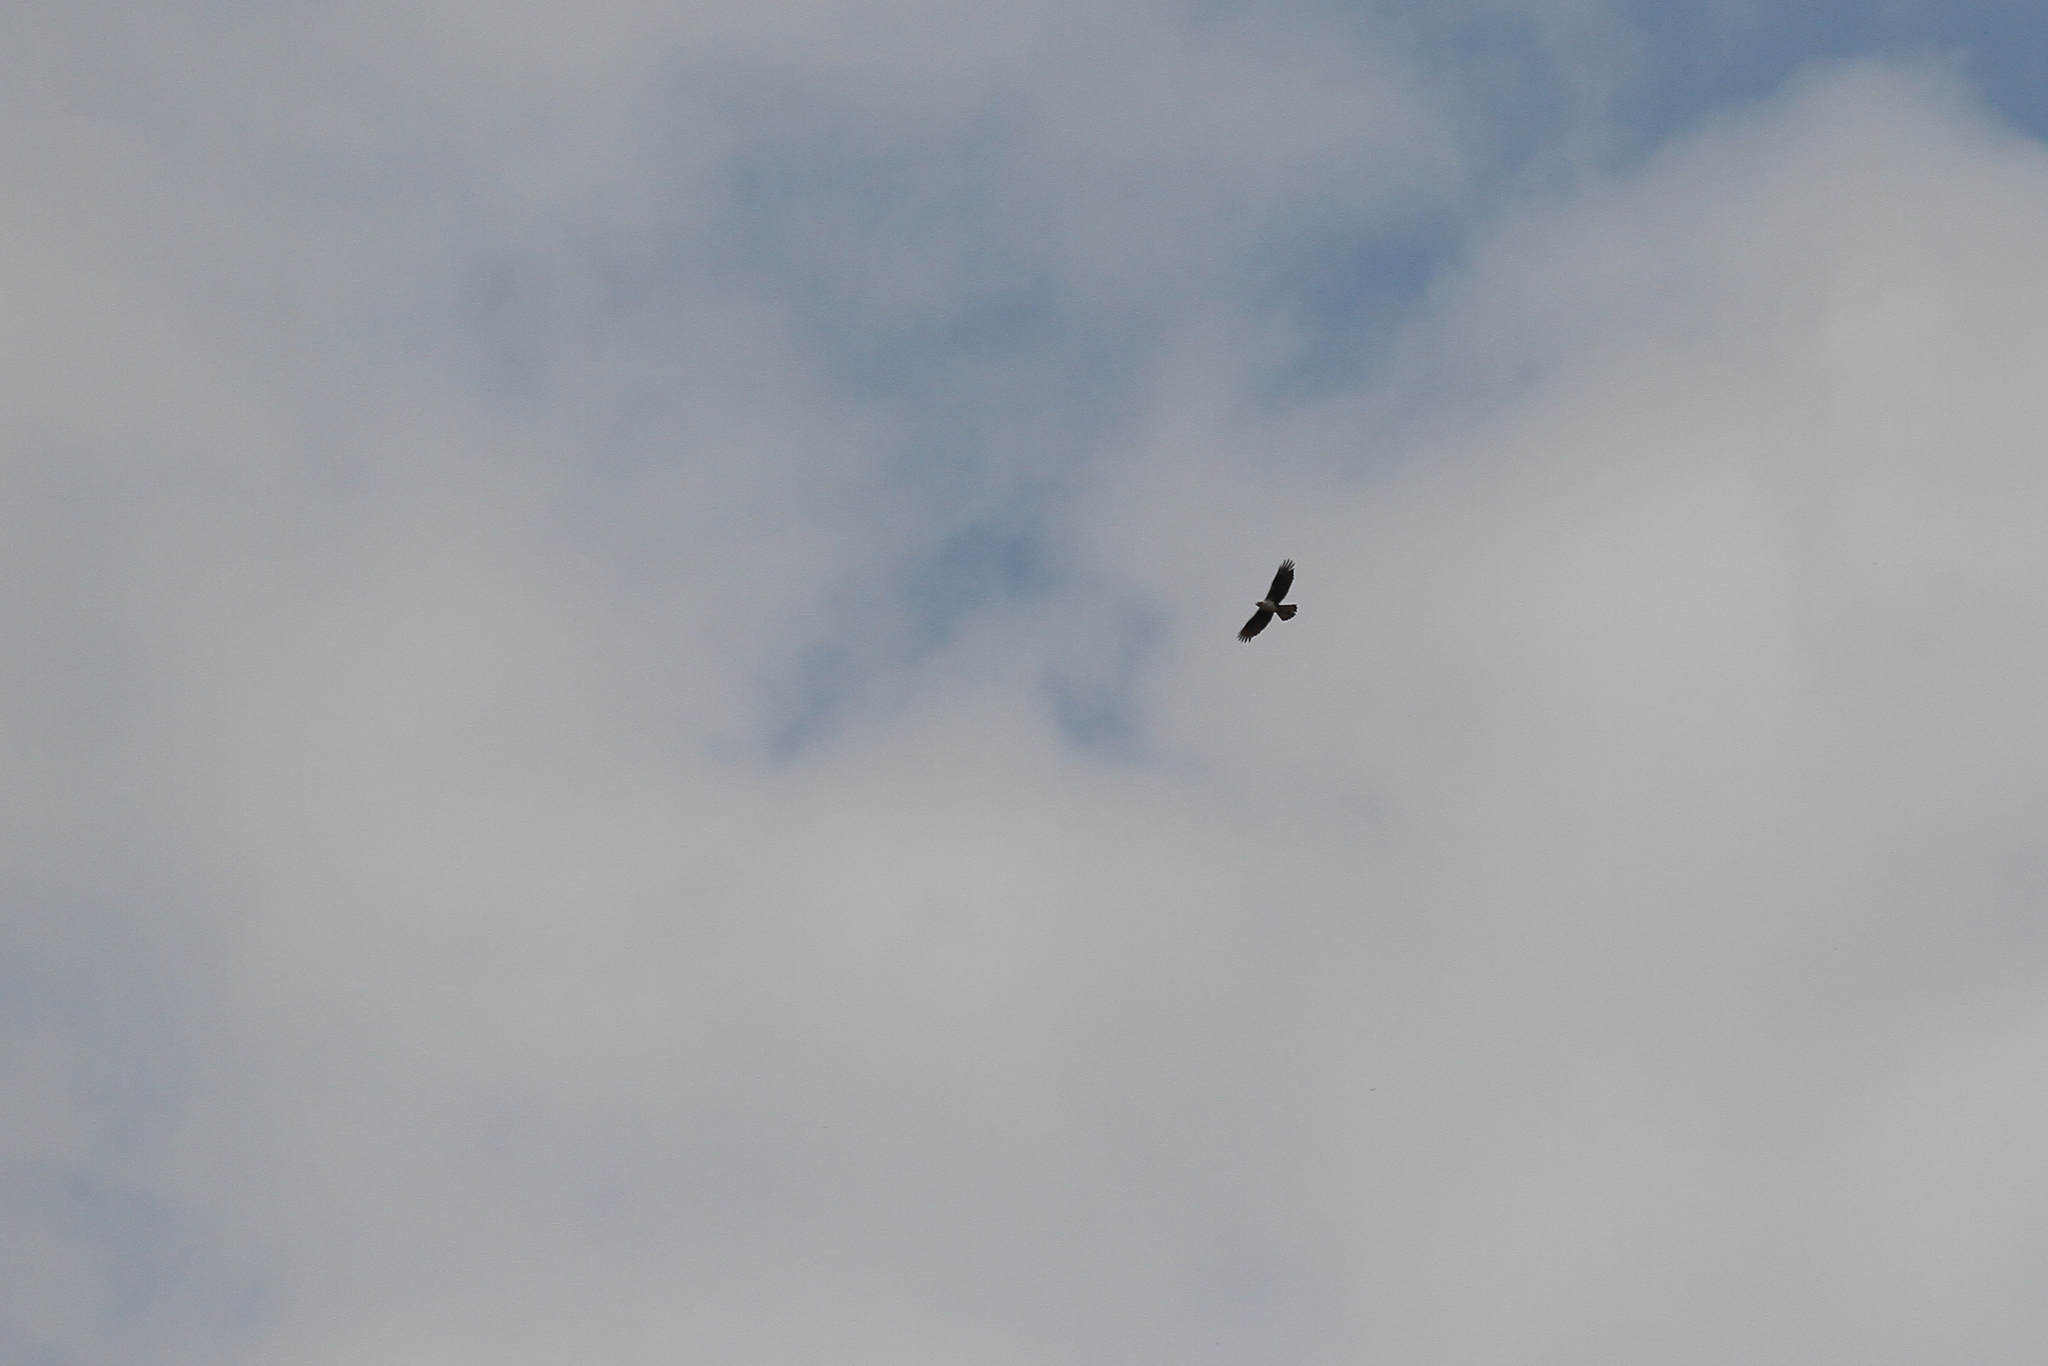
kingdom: Animalia
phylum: Chordata
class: Aves
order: Accipitriformes
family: Accipitridae
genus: Aquila
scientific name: Aquila fasciata
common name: Bonelli's eagle
